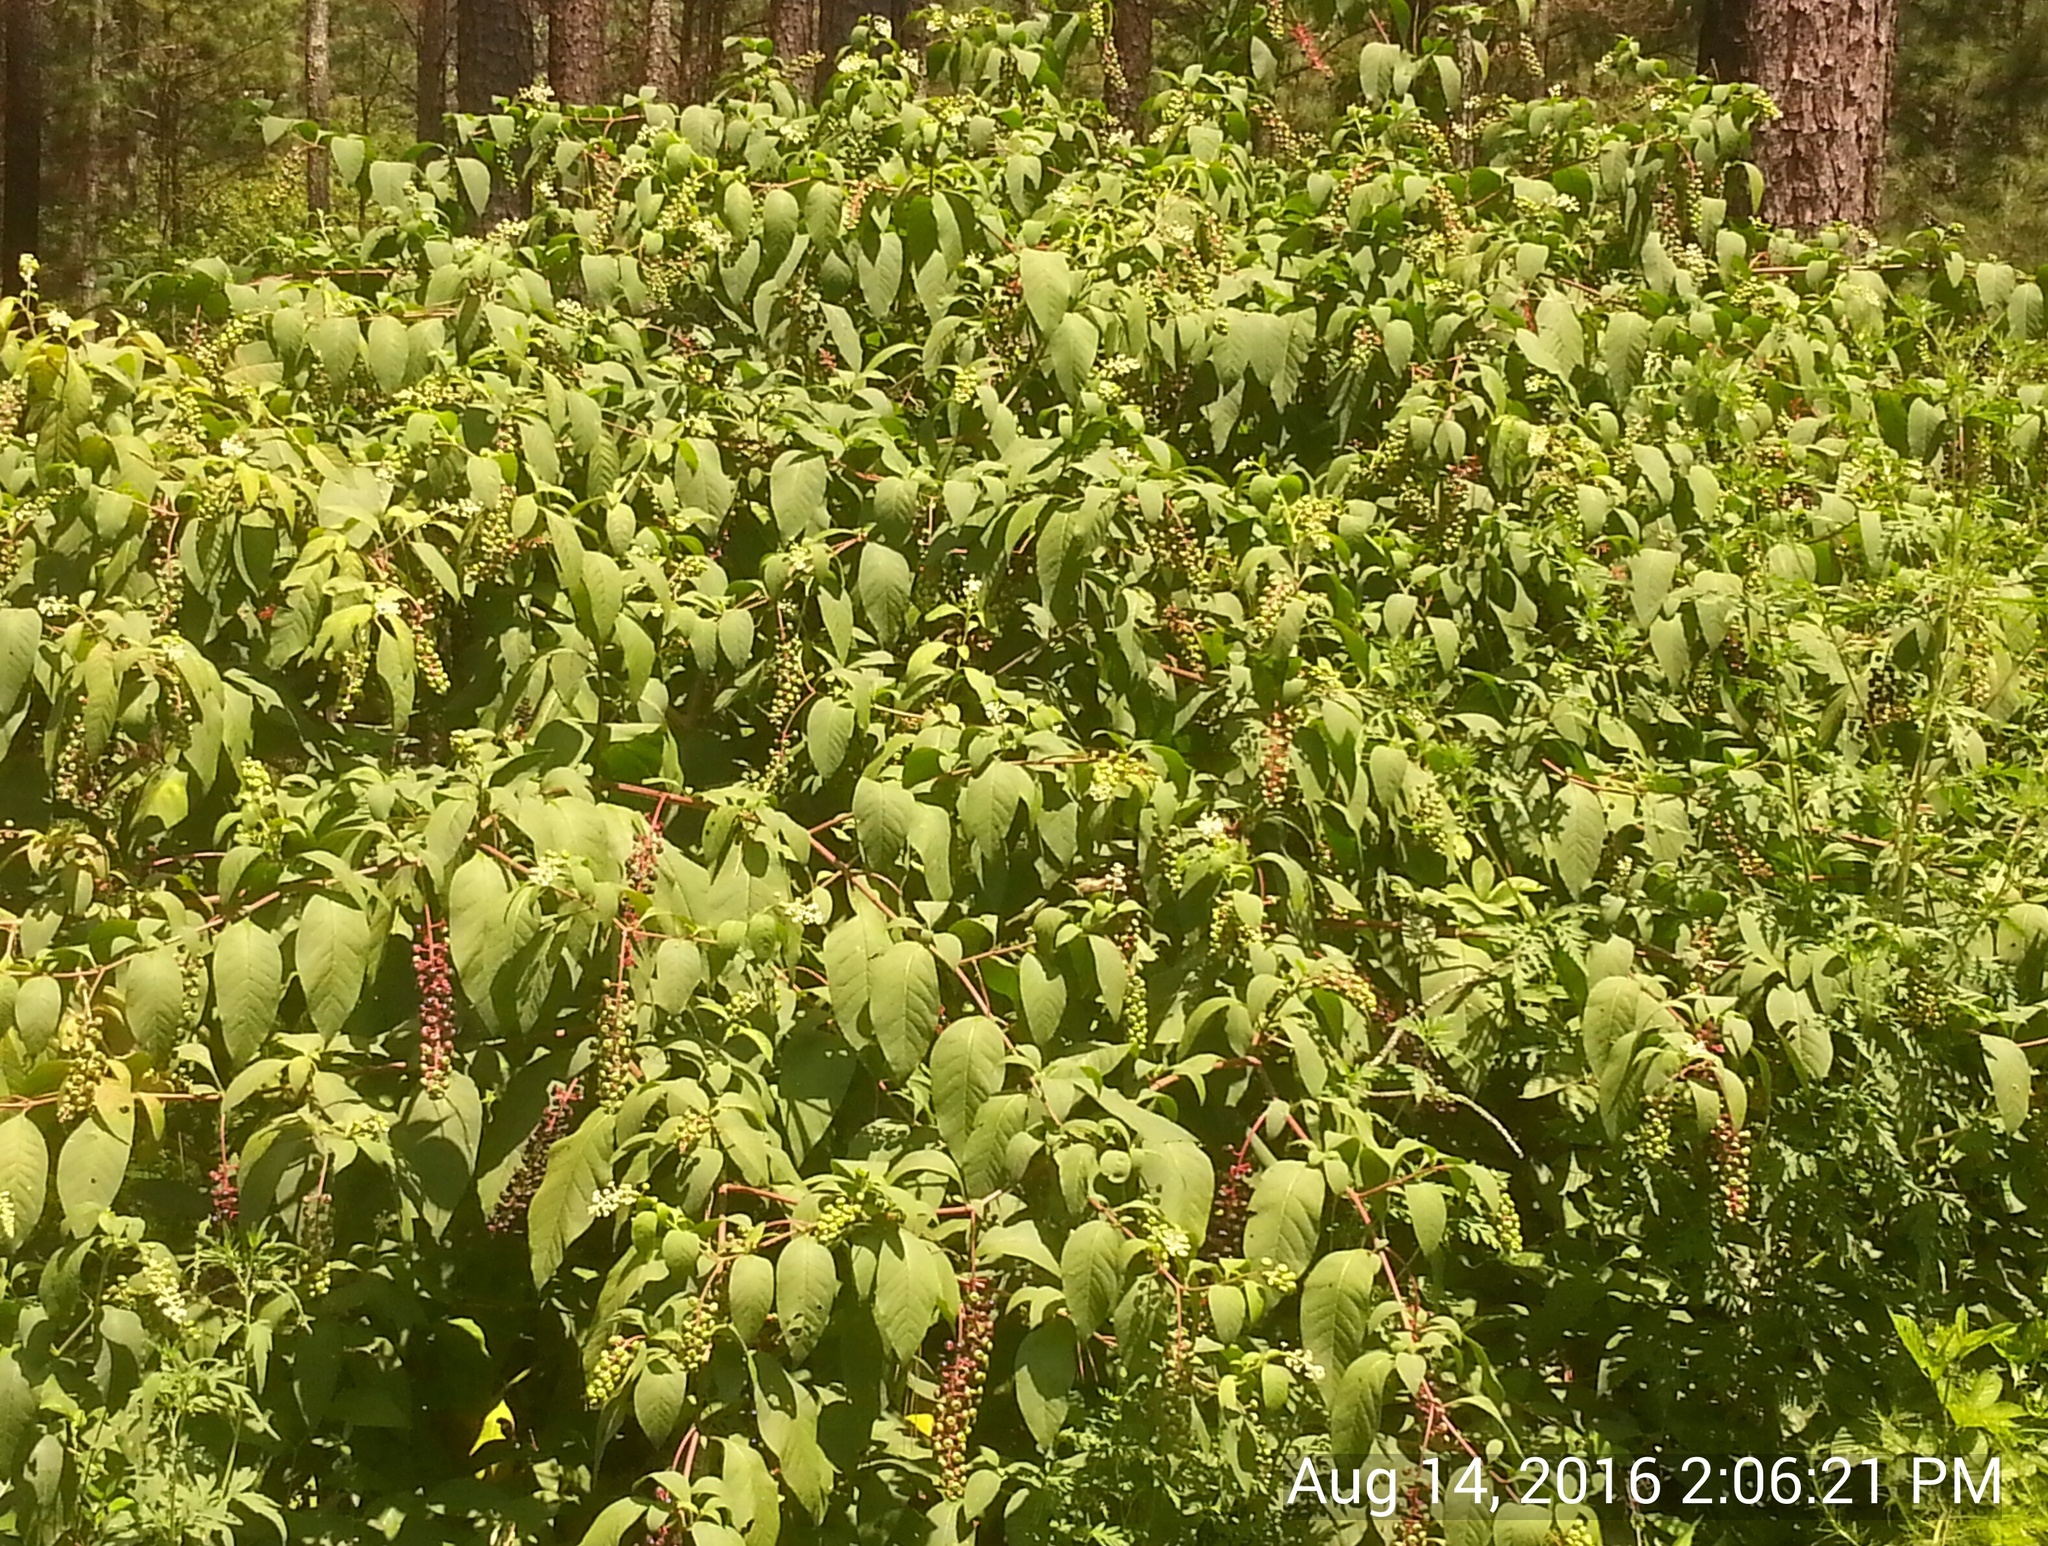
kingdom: Plantae
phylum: Tracheophyta
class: Magnoliopsida
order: Caryophyllales
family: Phytolaccaceae
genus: Phytolacca
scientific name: Phytolacca americana
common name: American pokeweed
